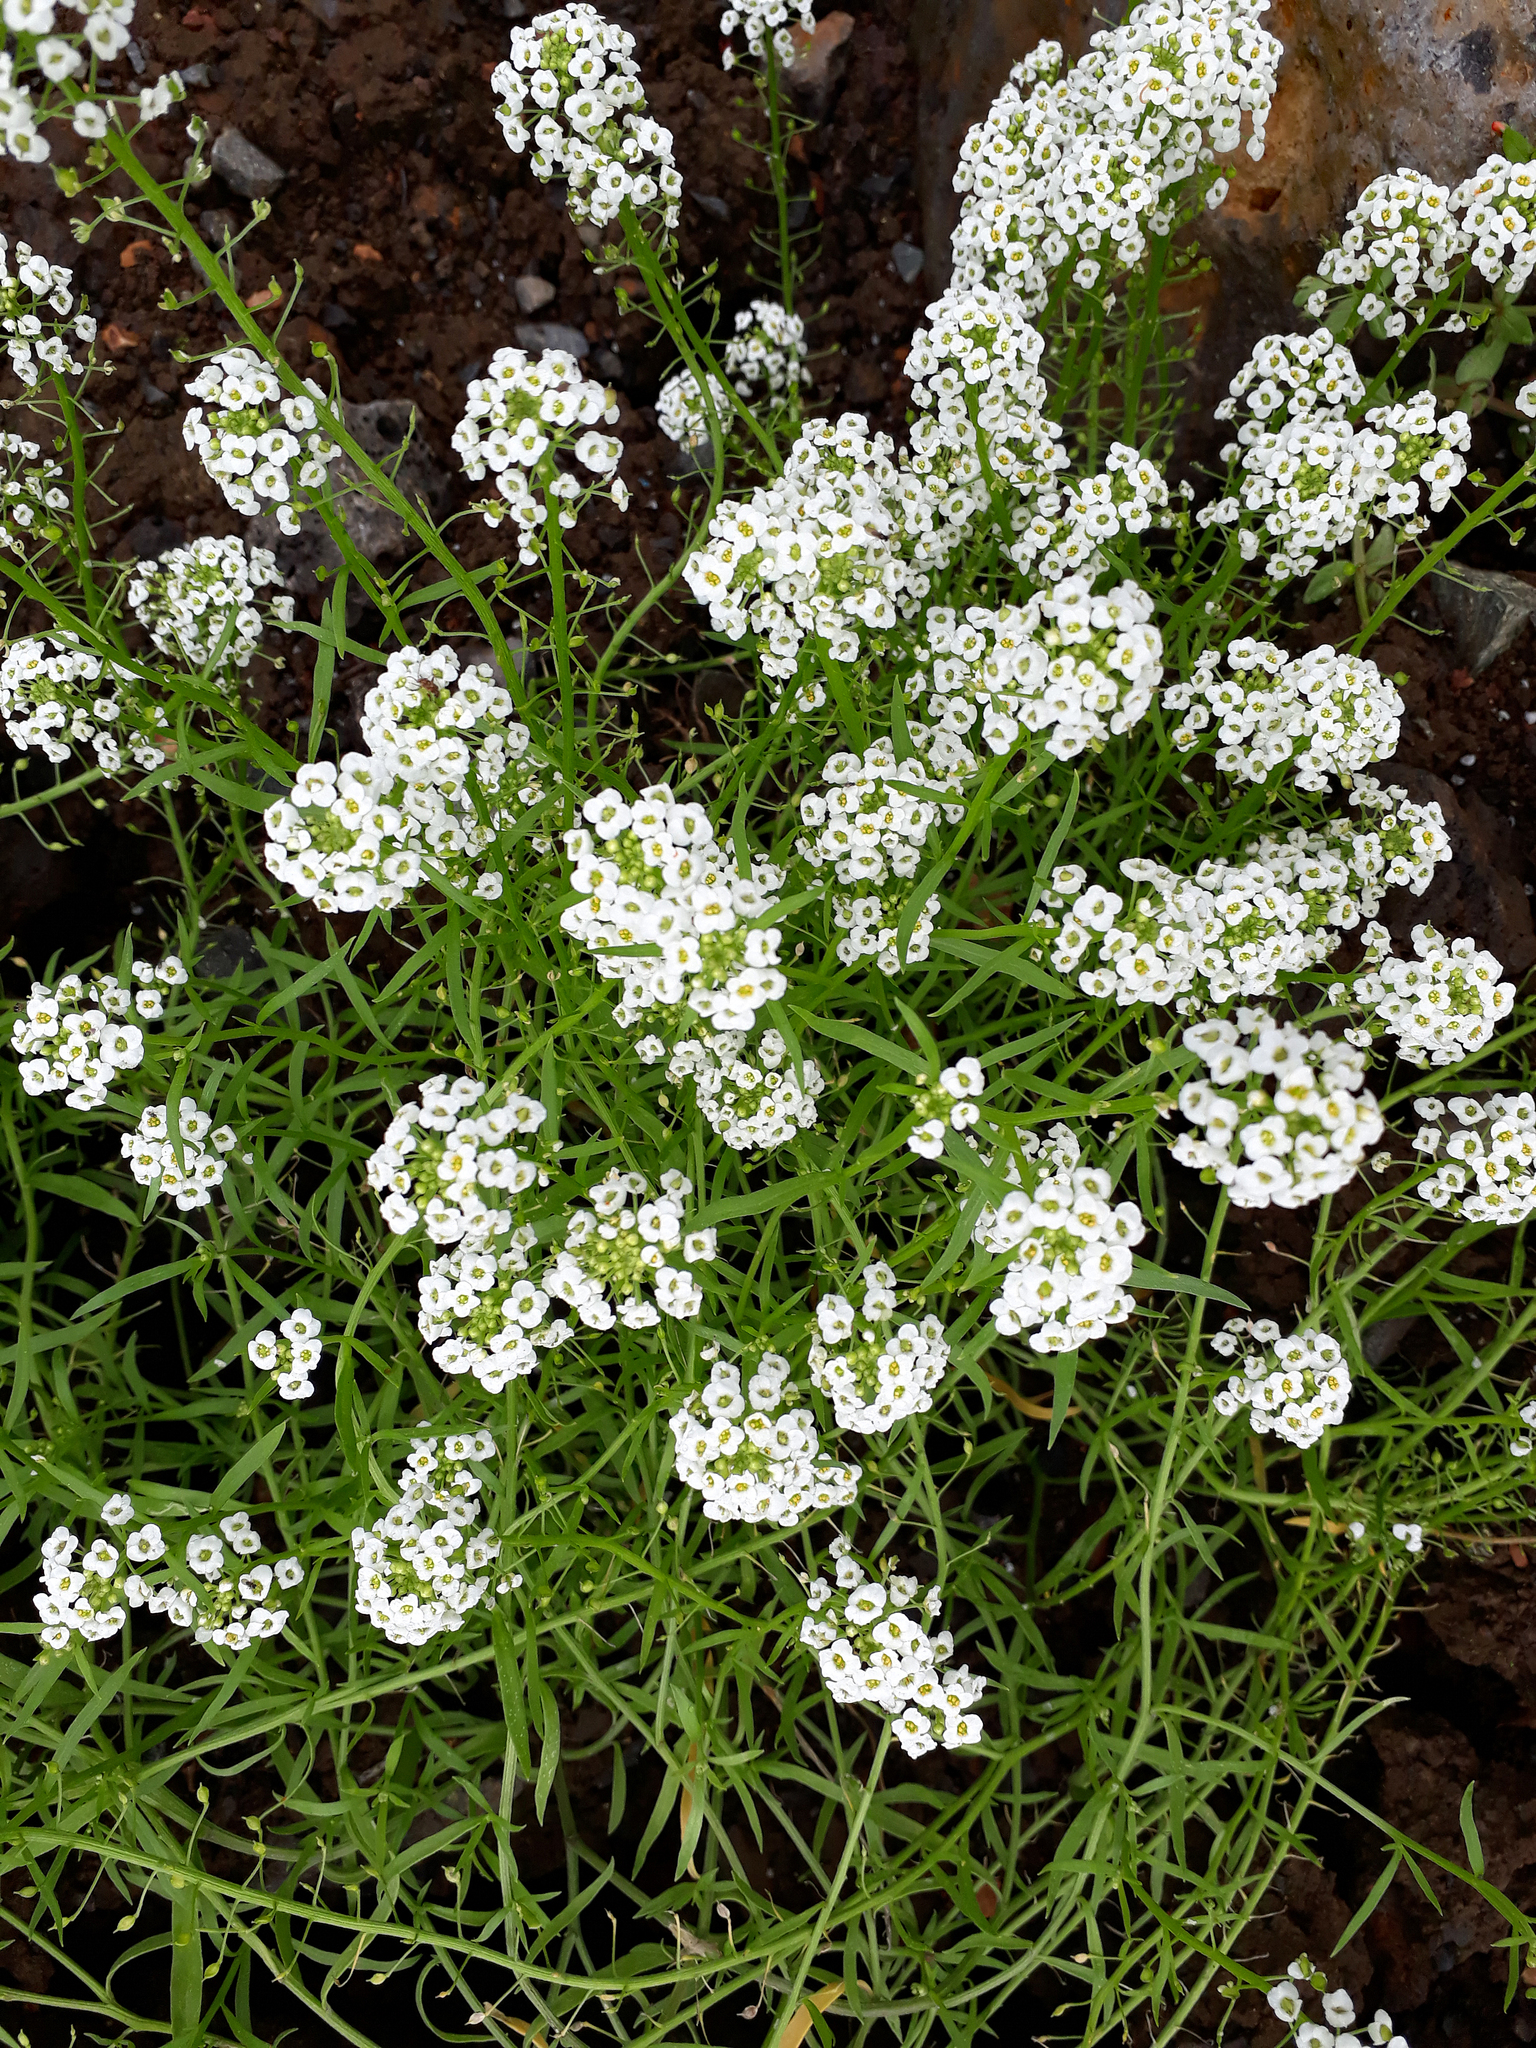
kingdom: Plantae
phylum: Tracheophyta
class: Magnoliopsida
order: Brassicales
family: Brassicaceae
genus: Lobularia
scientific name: Lobularia maritima
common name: Sweet alison
